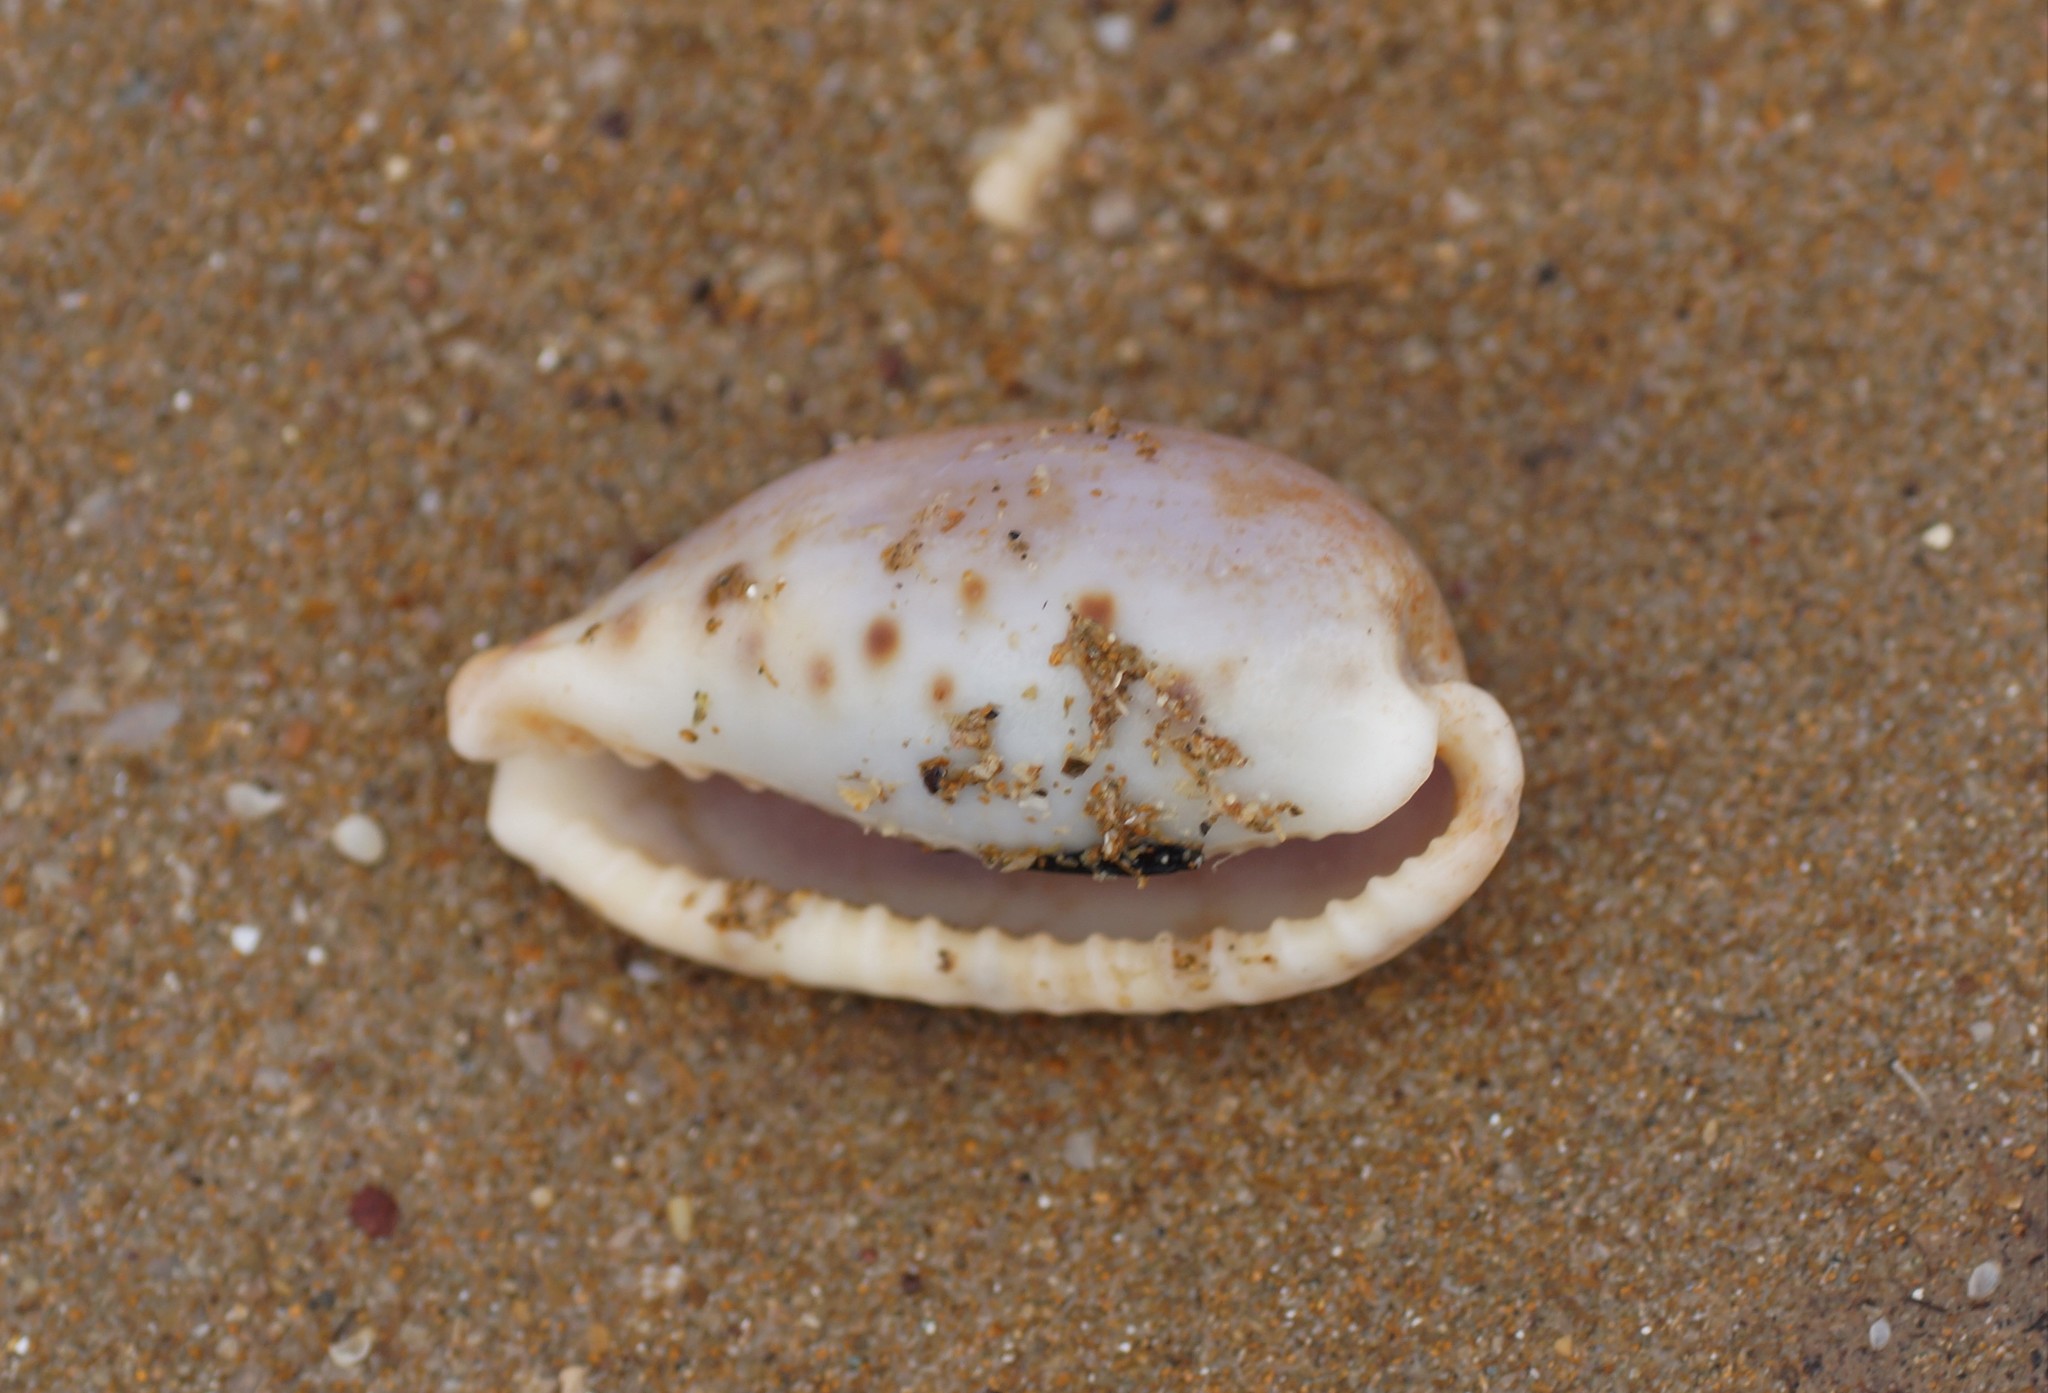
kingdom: Animalia
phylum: Mollusca
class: Gastropoda
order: Littorinimorpha
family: Cypraeidae
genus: Erronea
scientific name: Erronea caurica
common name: Thick-edged cowry
